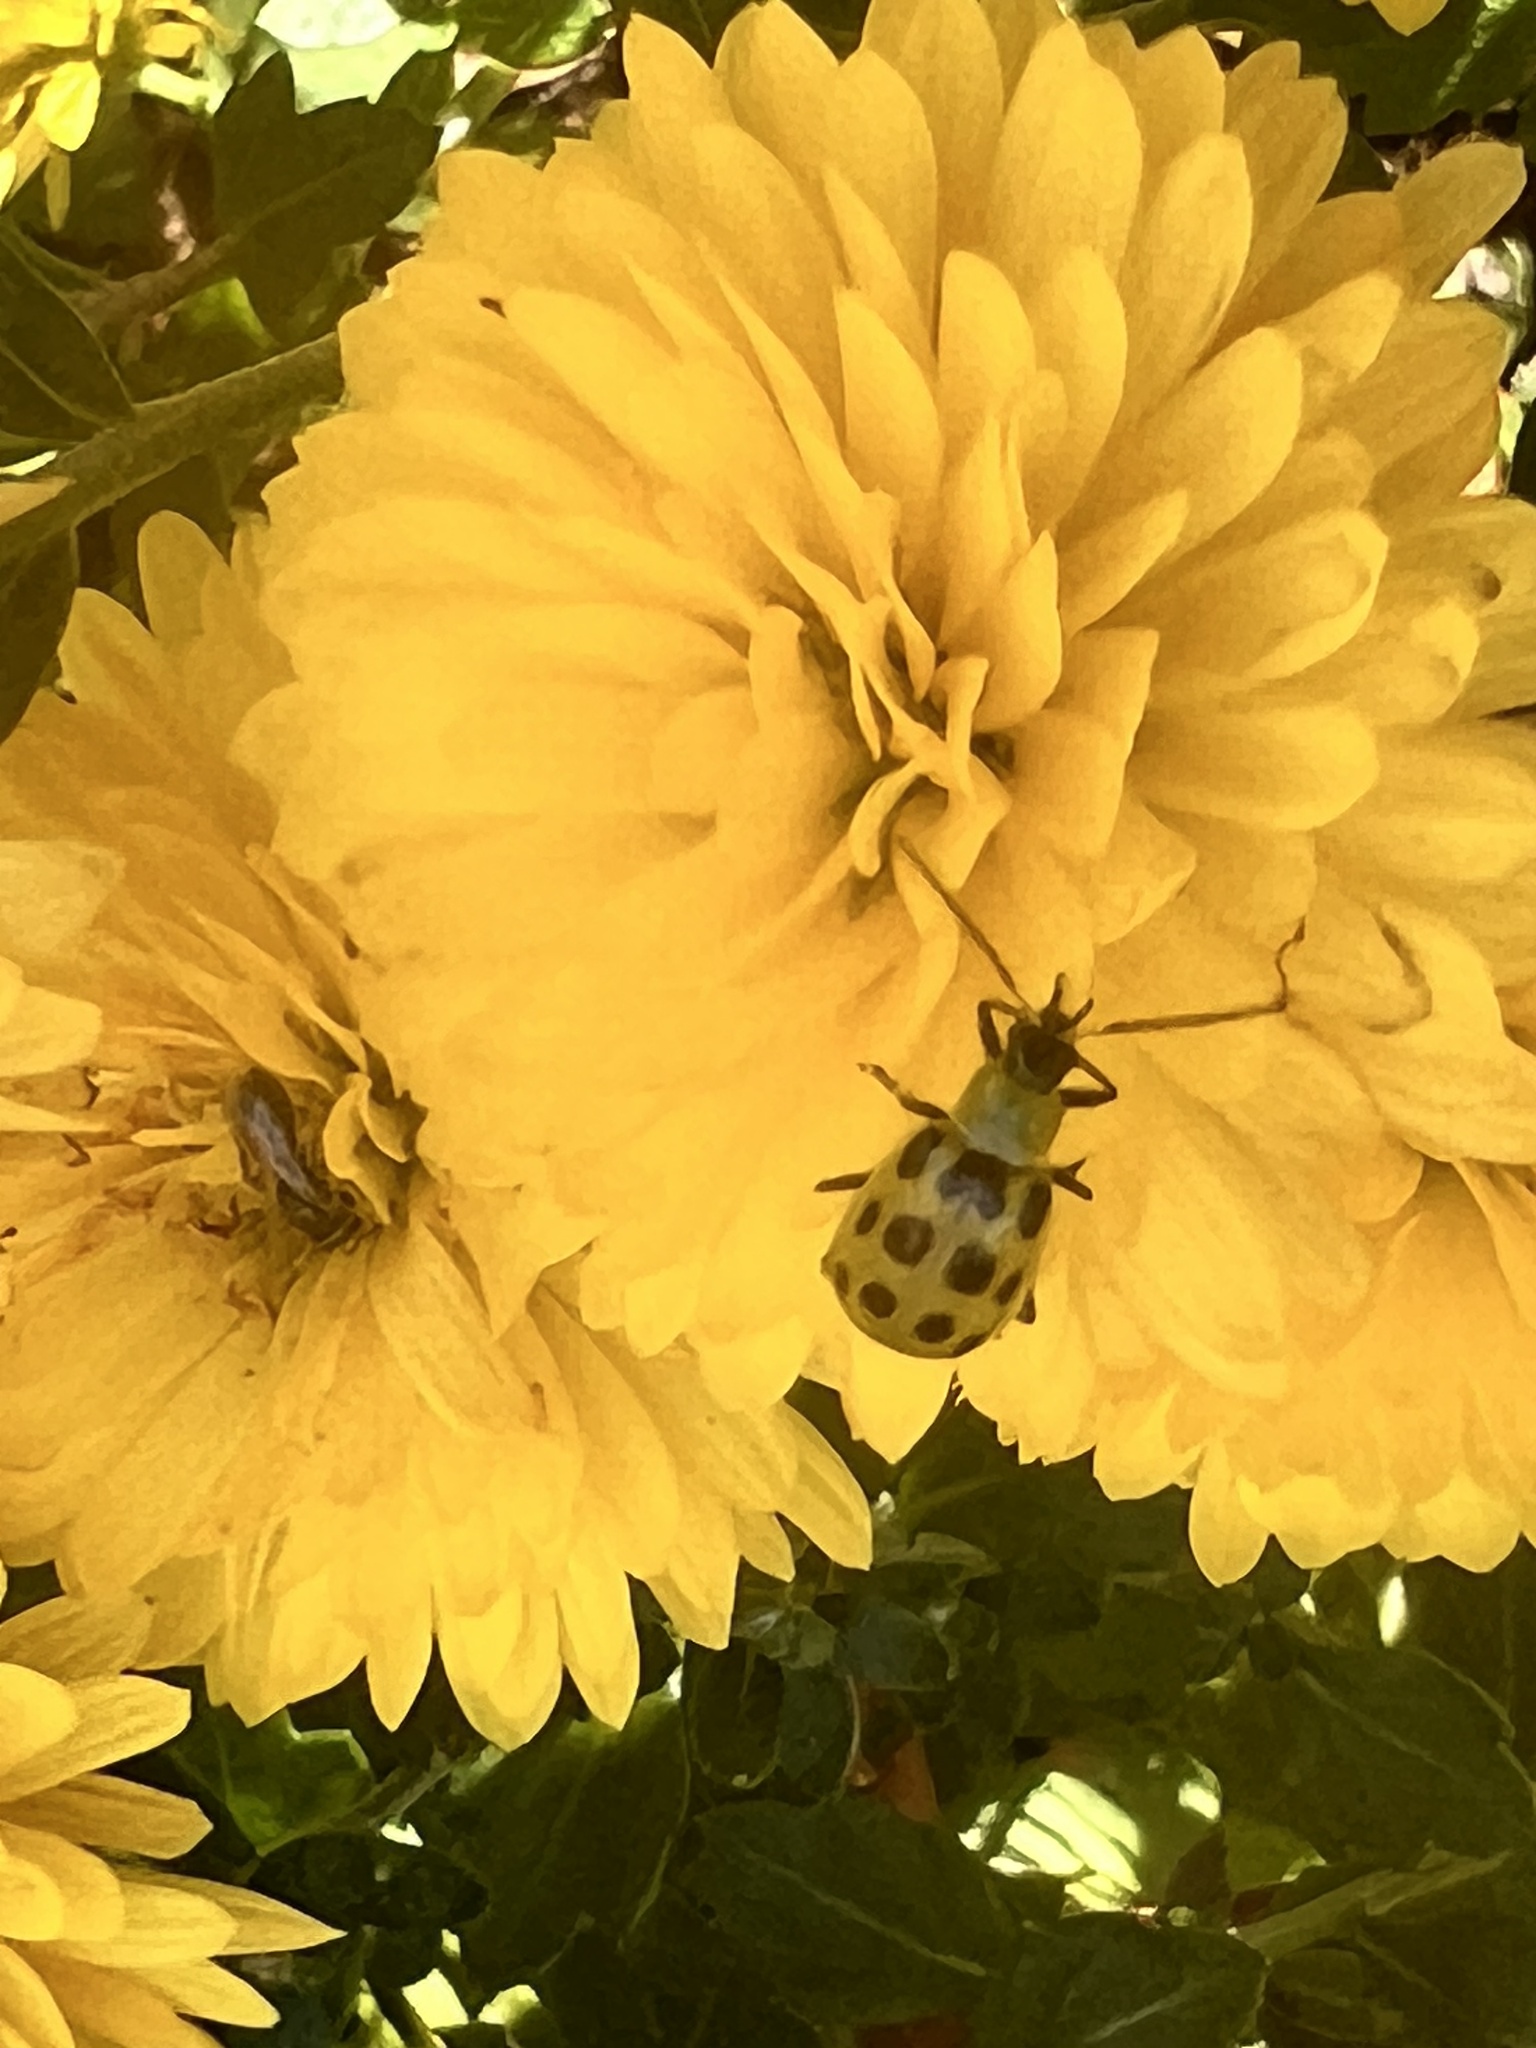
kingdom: Animalia
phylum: Arthropoda
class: Insecta
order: Coleoptera
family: Chrysomelidae
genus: Diabrotica
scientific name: Diabrotica undecimpunctata
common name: Spotted cucumber beetle
